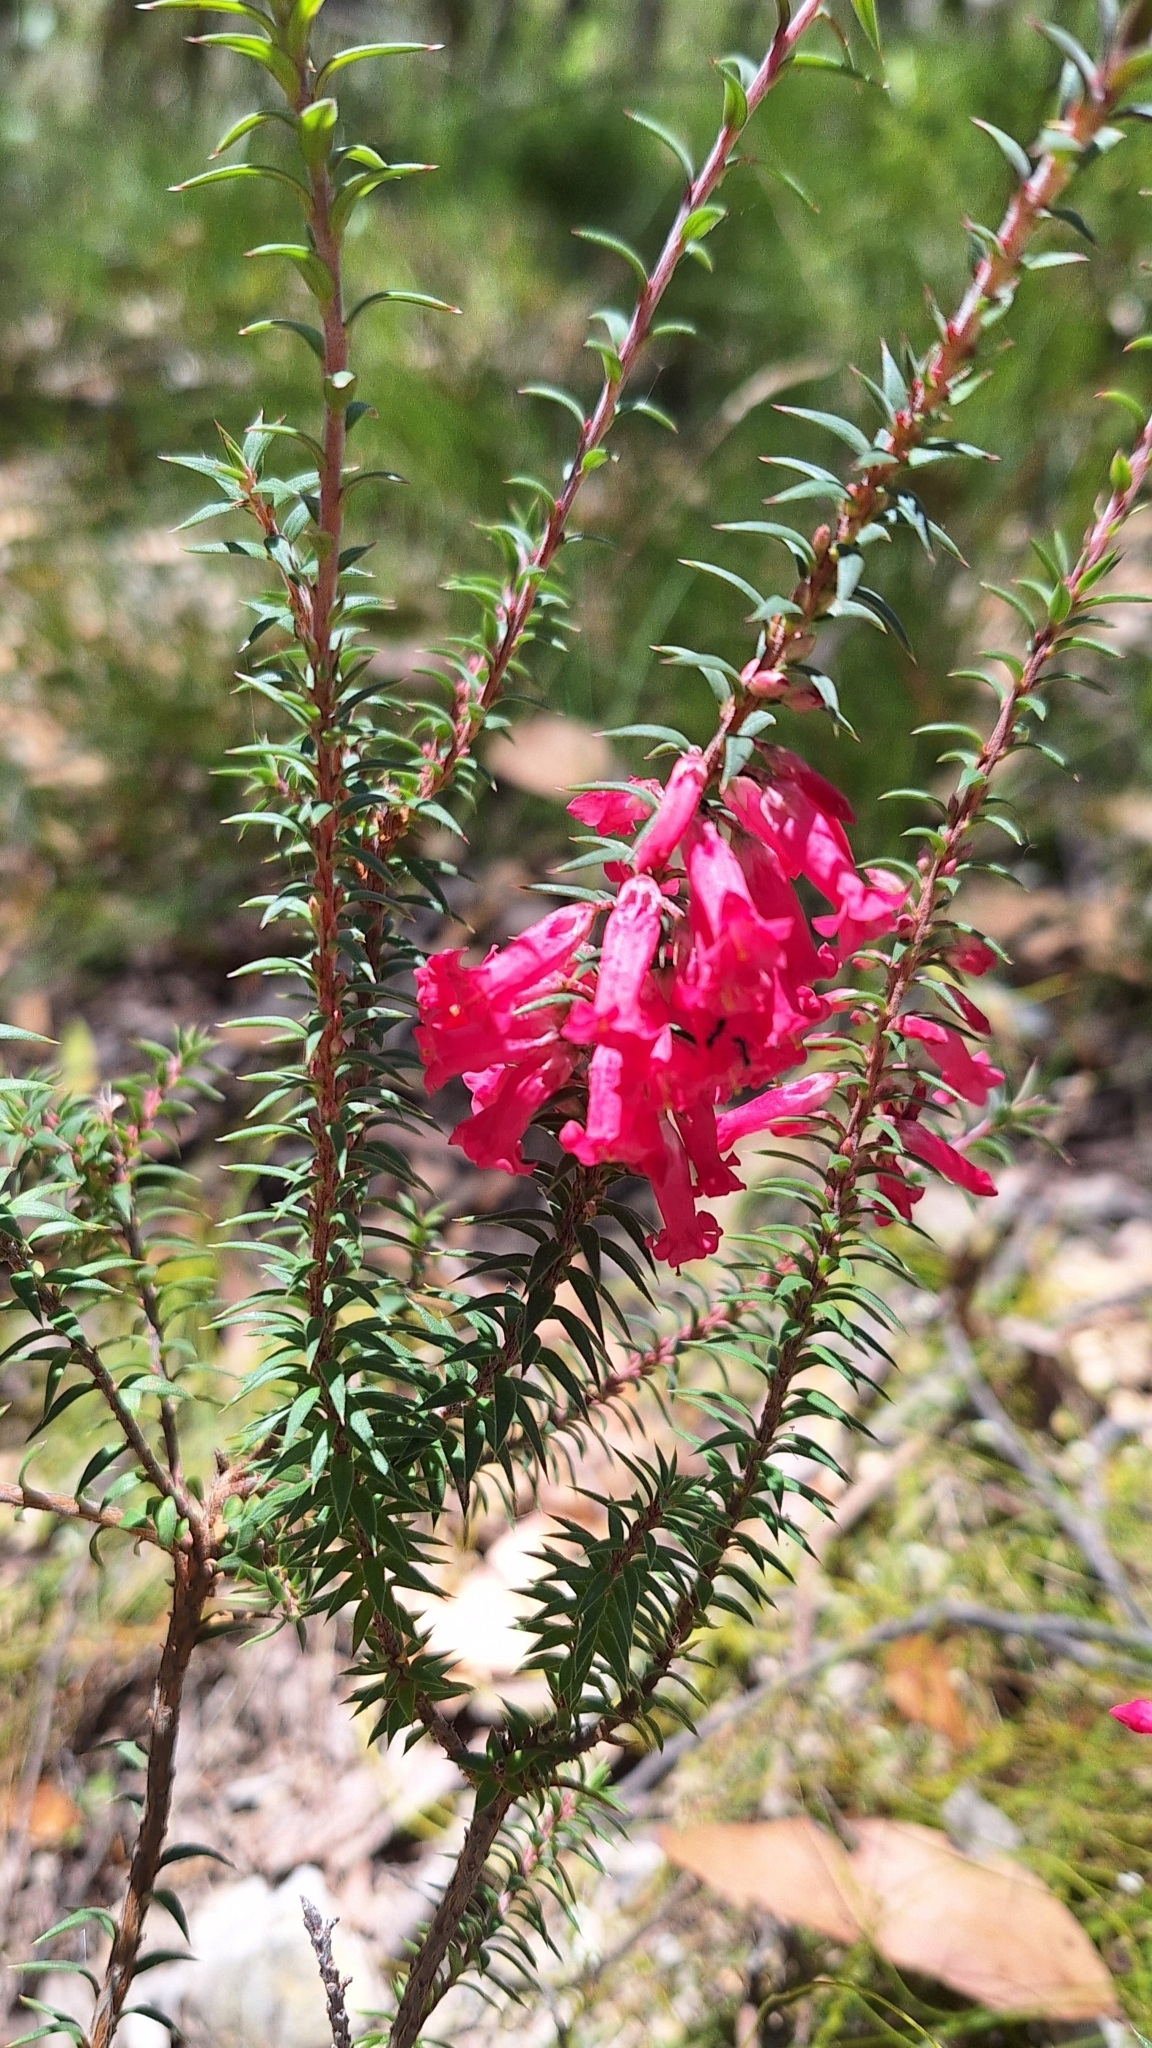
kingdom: Plantae
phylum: Tracheophyta
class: Magnoliopsida
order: Ericales
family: Ericaceae
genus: Epacris
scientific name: Epacris impressa
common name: Common-heath
